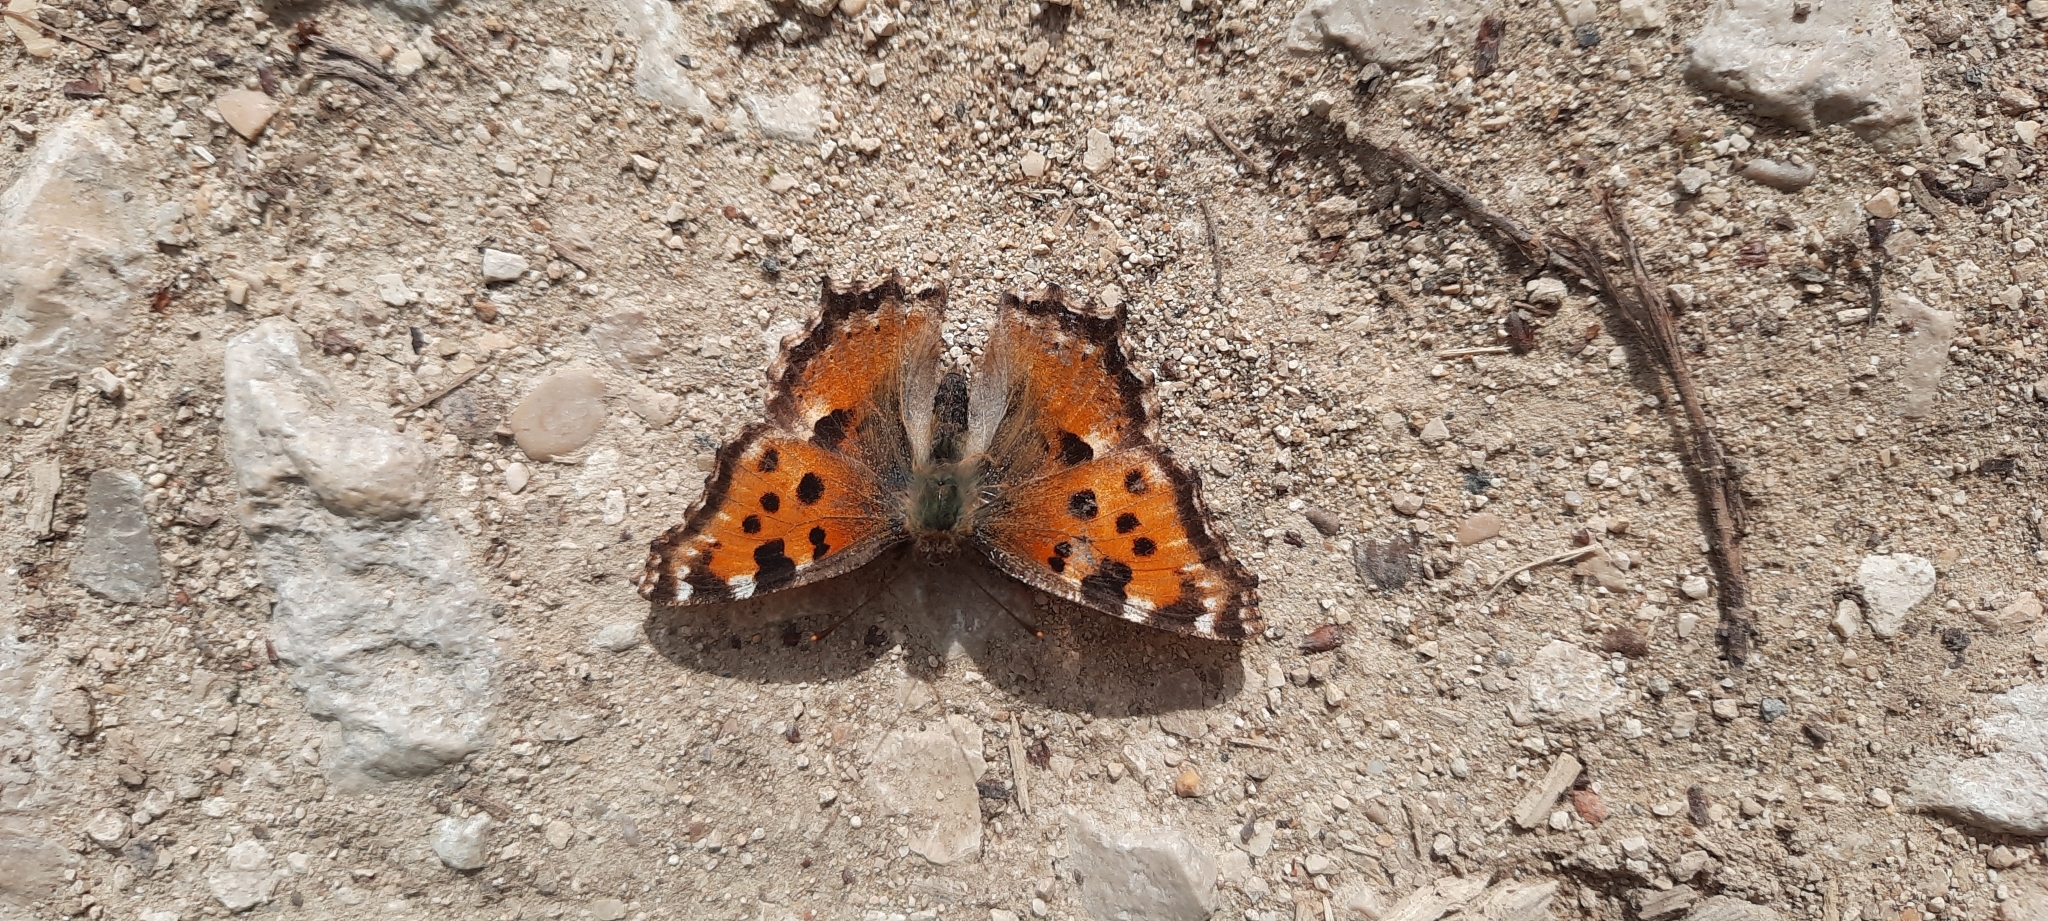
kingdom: Animalia
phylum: Arthropoda
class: Insecta
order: Lepidoptera
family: Nymphalidae
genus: Nymphalis
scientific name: Nymphalis polychloros
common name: Large tortoiseshell
